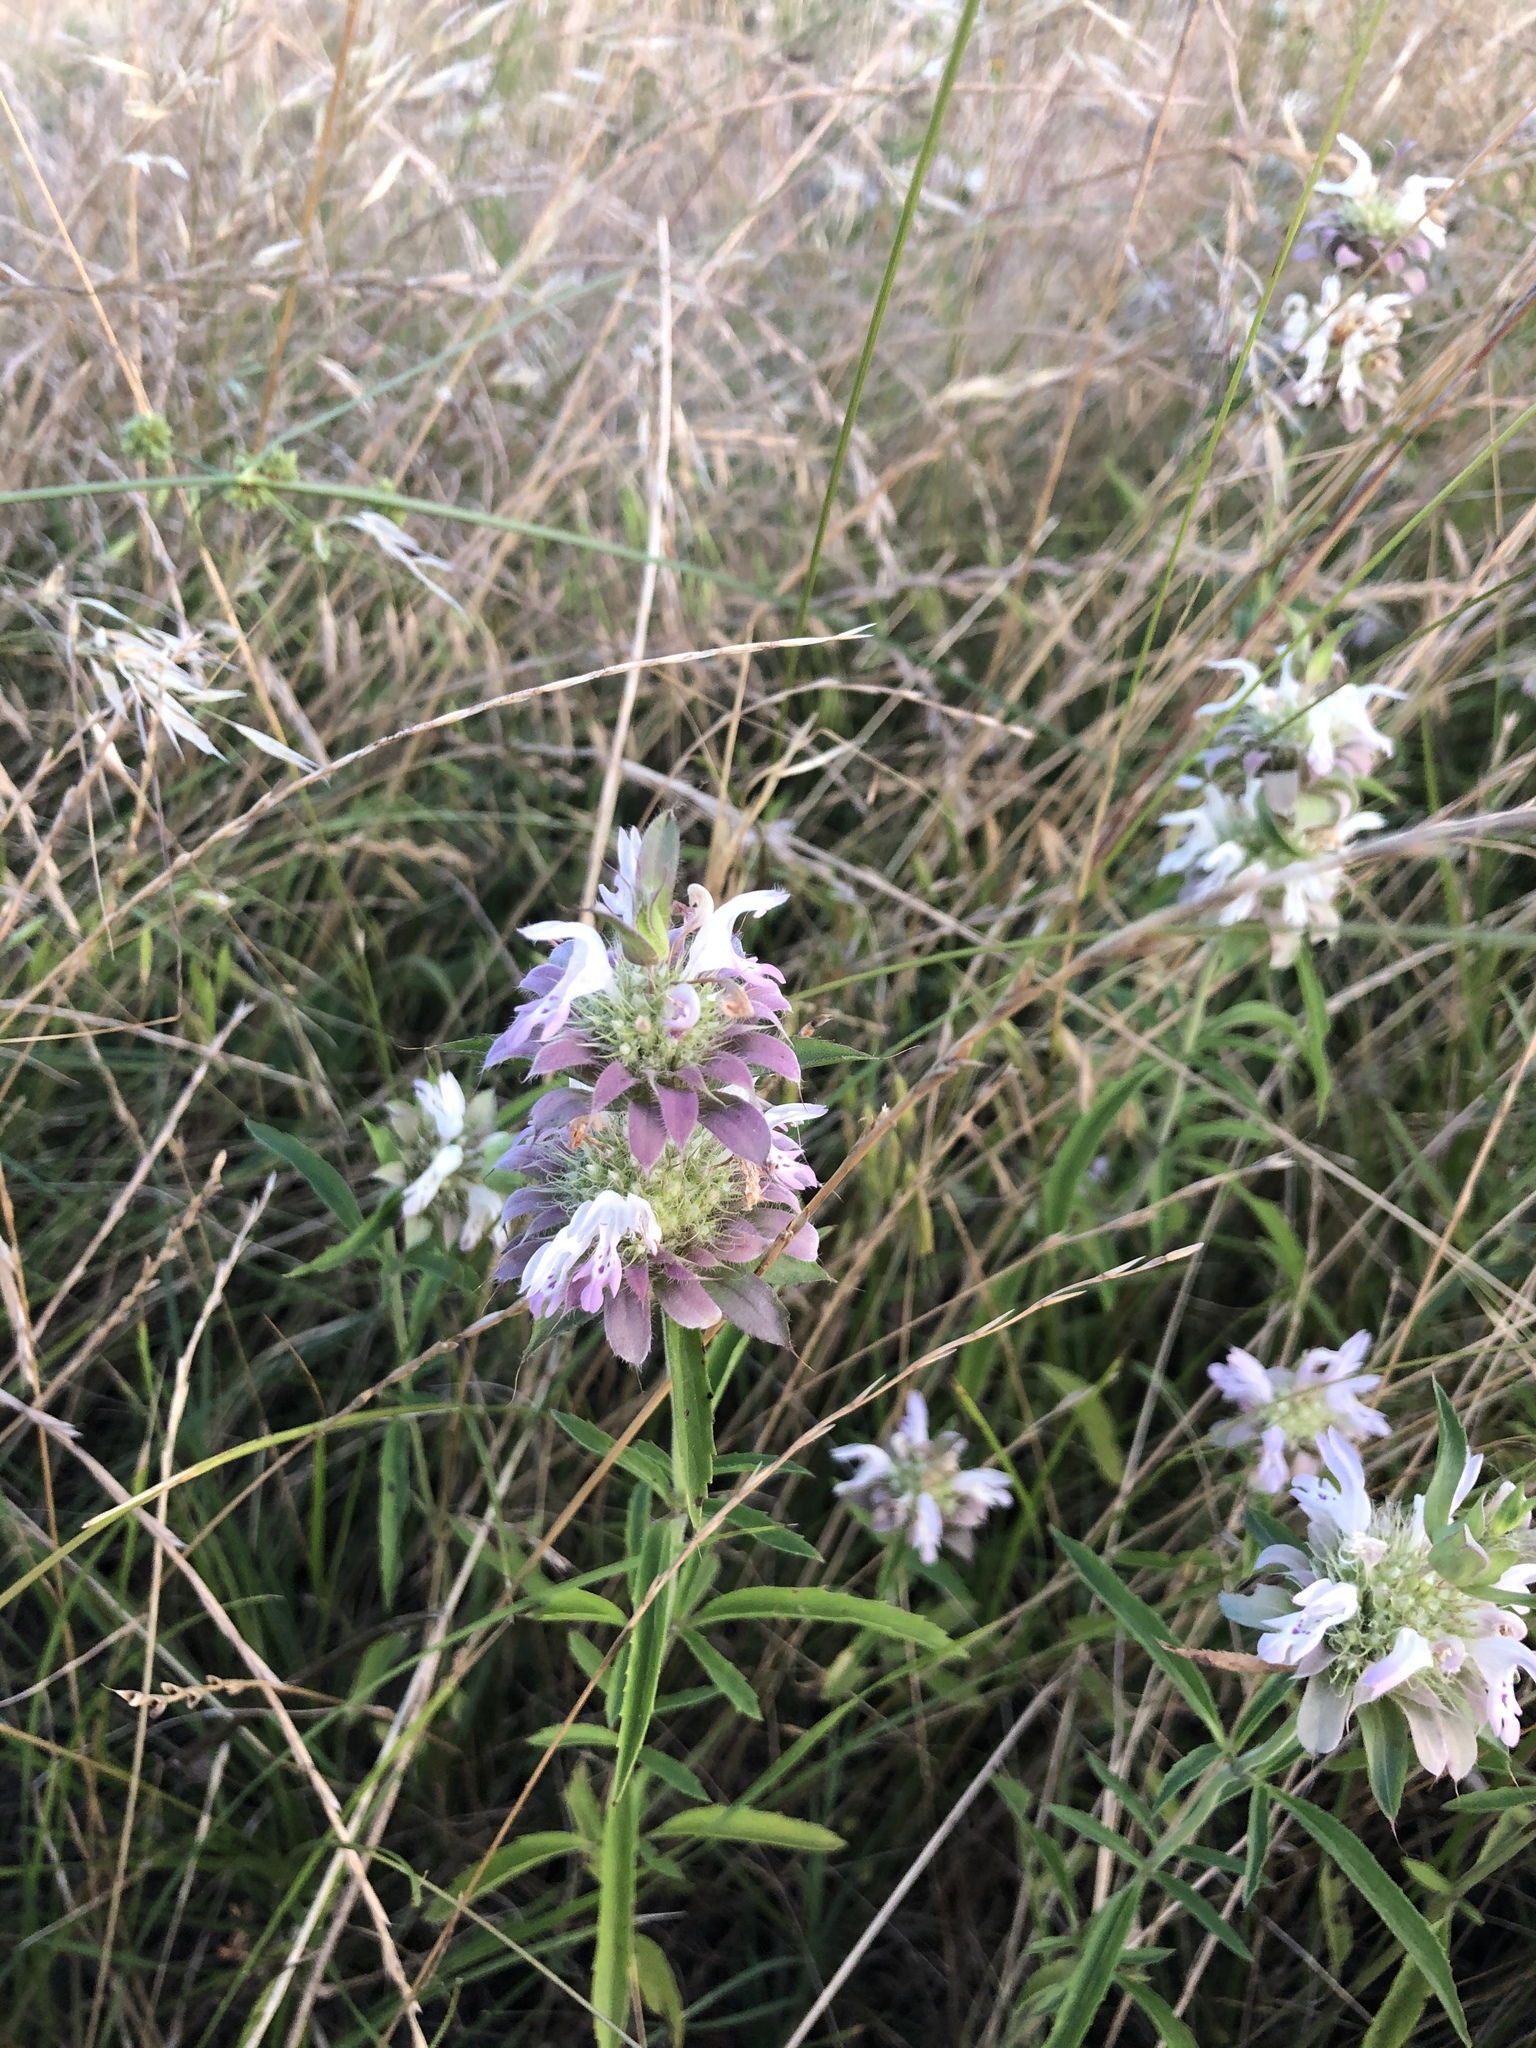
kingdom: Plantae
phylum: Tracheophyta
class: Magnoliopsida
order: Lamiales
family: Lamiaceae
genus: Monarda
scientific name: Monarda citriodora
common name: Lemon beebalm
